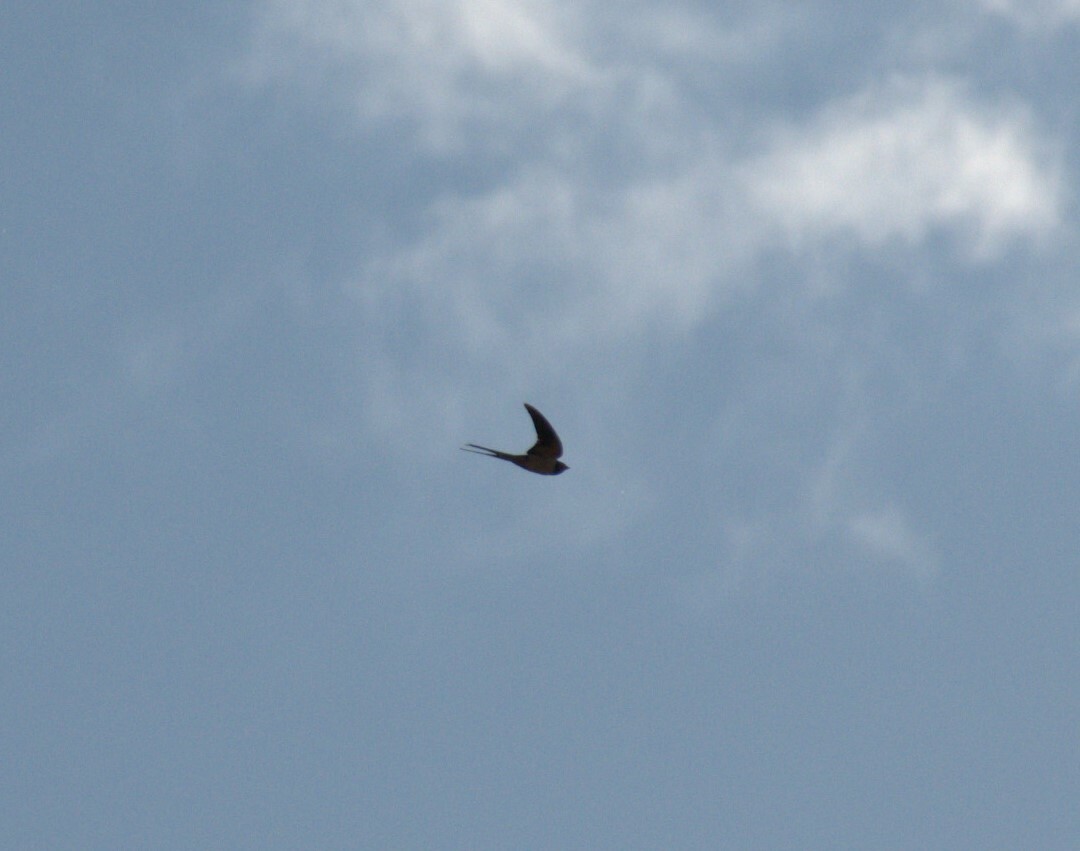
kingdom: Animalia
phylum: Chordata
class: Aves
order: Passeriformes
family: Hirundinidae
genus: Hirundo
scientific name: Hirundo rustica
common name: Barn swallow
